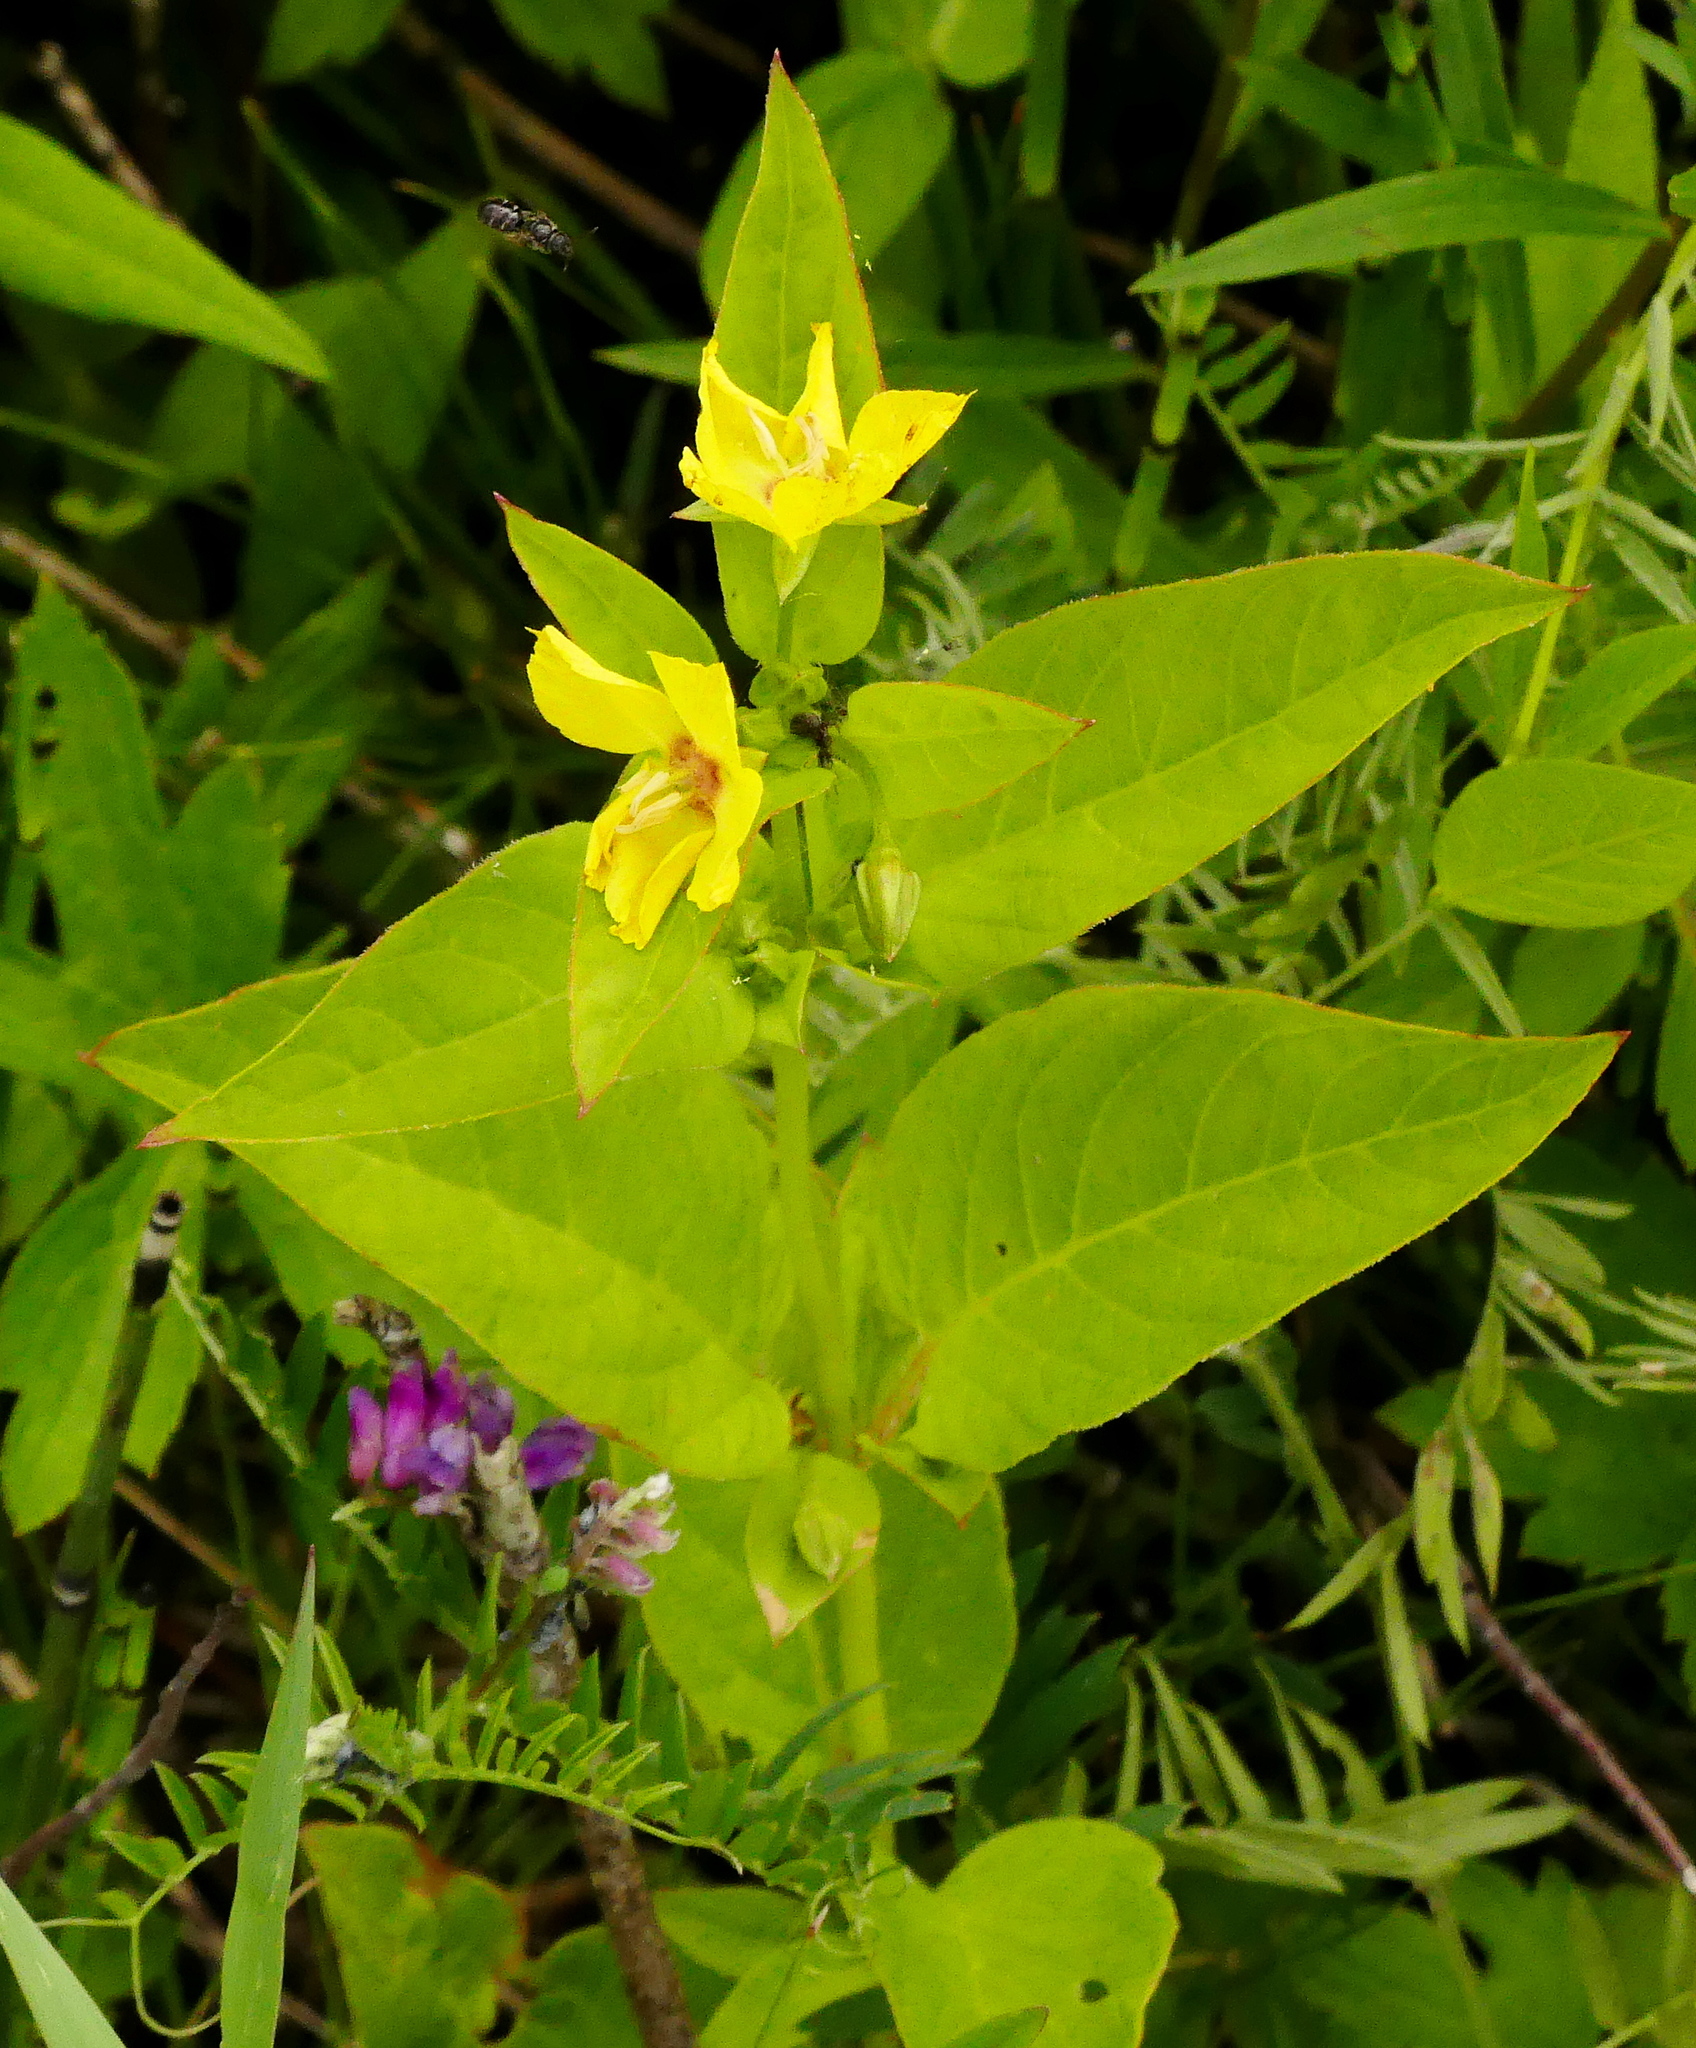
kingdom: Plantae
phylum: Tracheophyta
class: Magnoliopsida
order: Ericales
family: Primulaceae
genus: Lysimachia
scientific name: Lysimachia ciliata
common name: Fringed loosestrife
